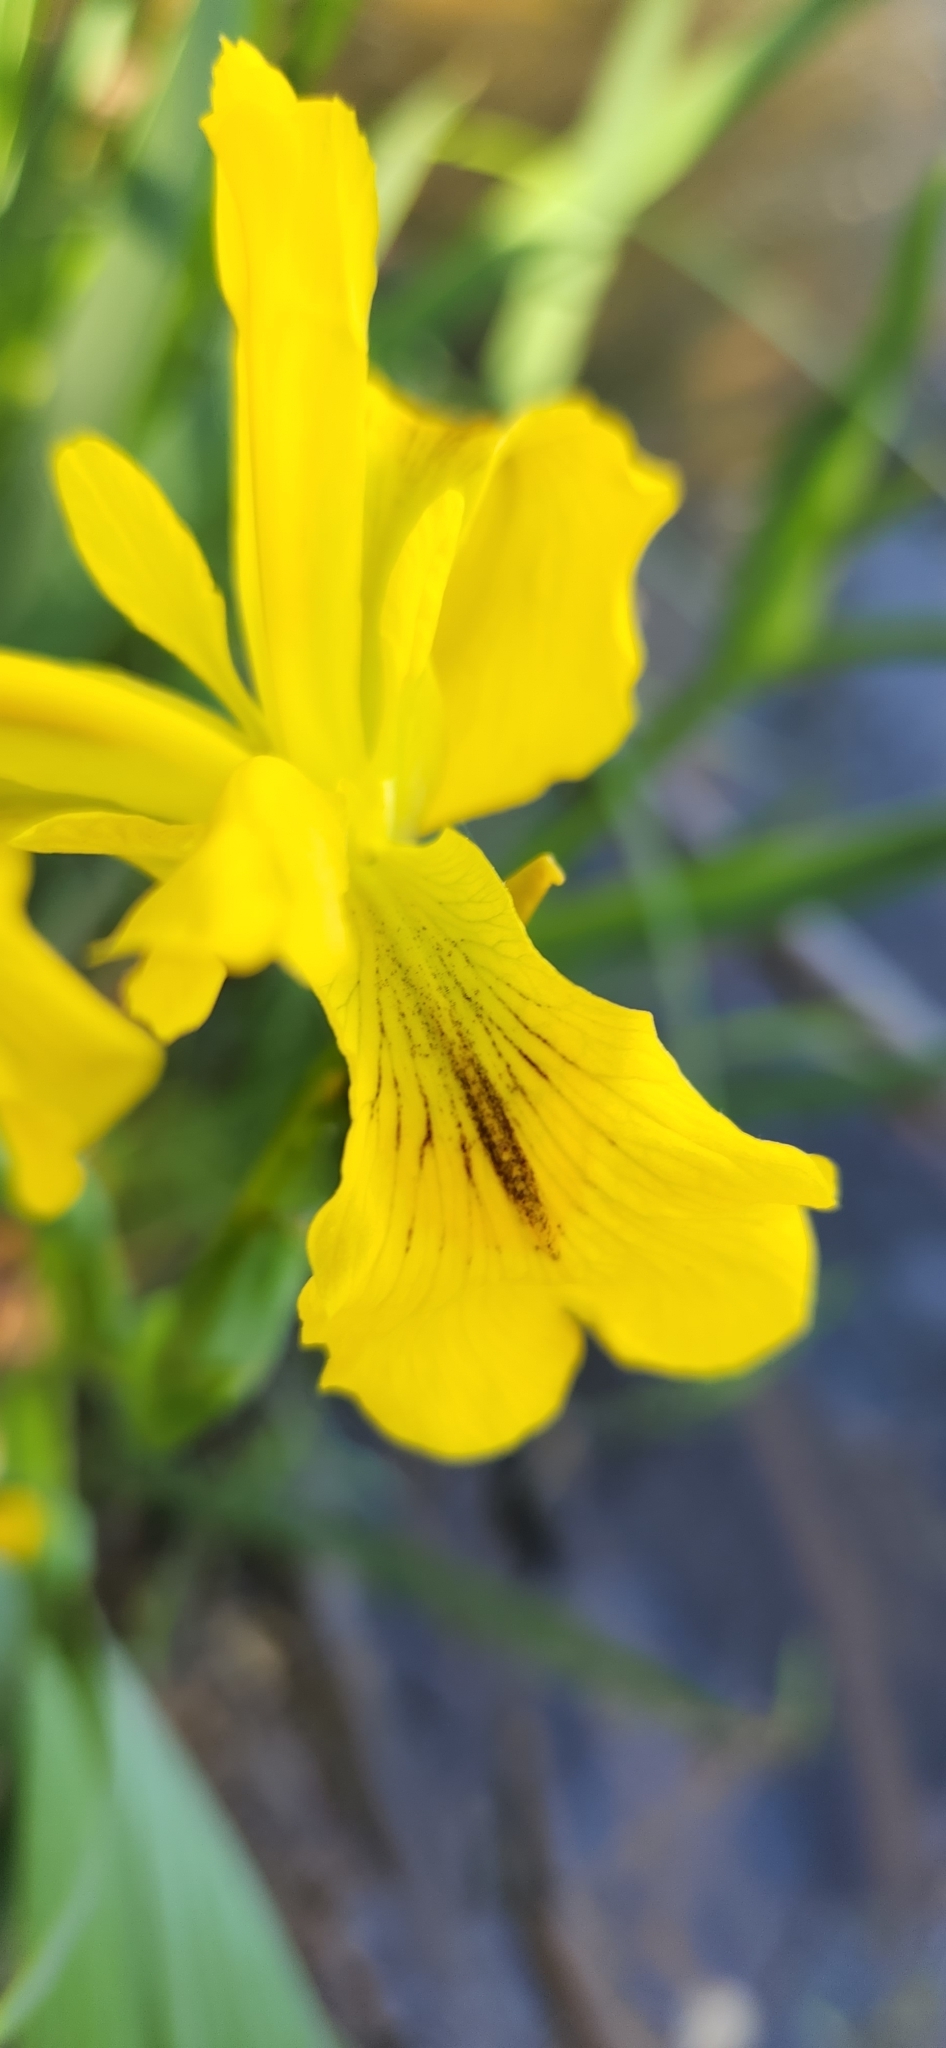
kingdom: Plantae
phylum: Tracheophyta
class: Liliopsida
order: Asparagales
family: Iridaceae
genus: Iris
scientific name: Iris pseudacorus
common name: Yellow flag
